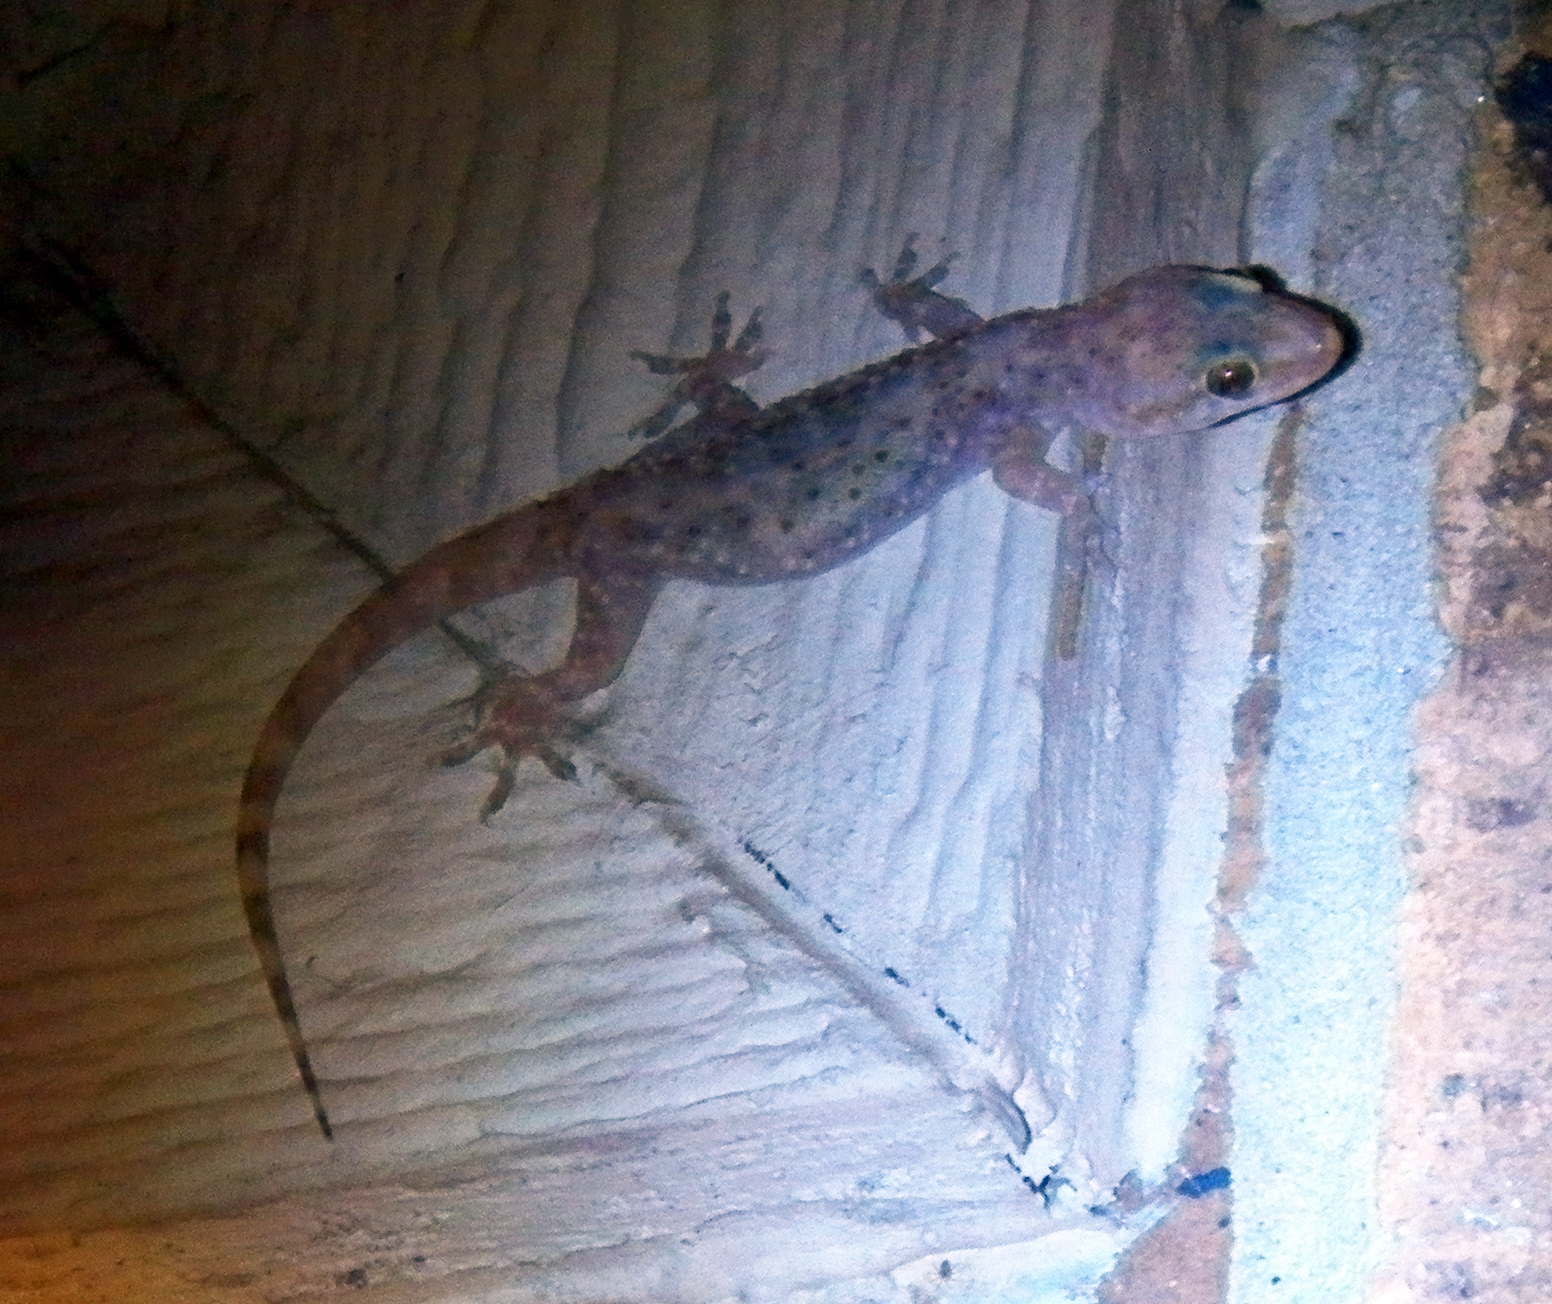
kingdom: Animalia
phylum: Chordata
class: Squamata
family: Gekkonidae
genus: Hemidactylus
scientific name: Hemidactylus turcicus
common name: Turkish gecko
